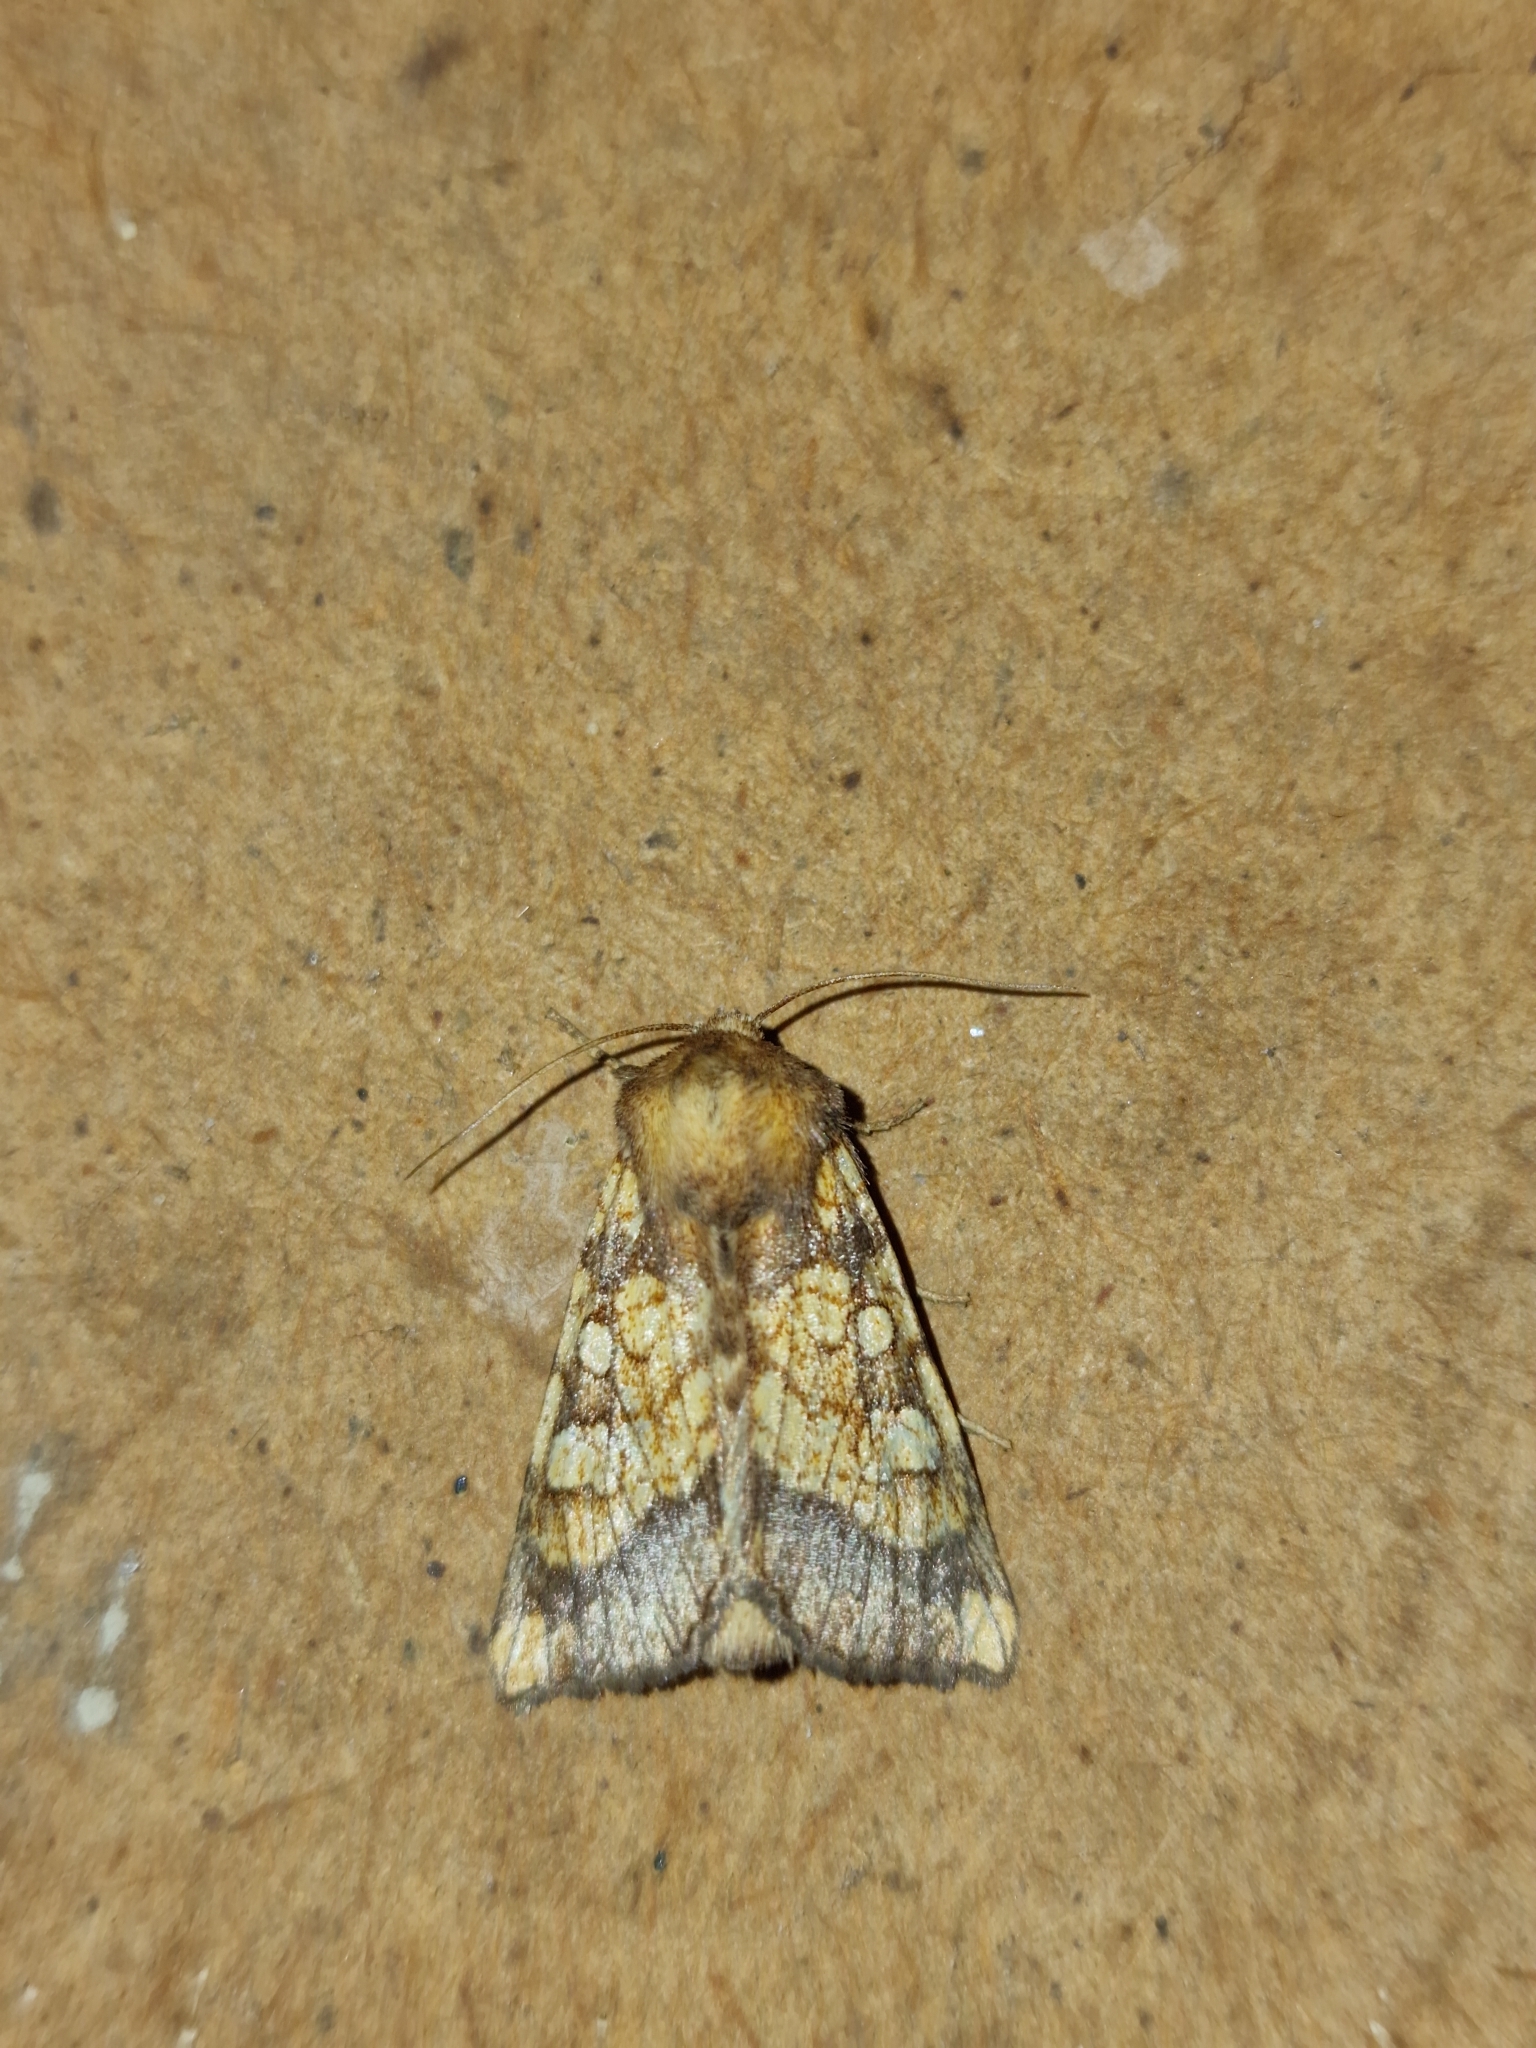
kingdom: Animalia
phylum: Arthropoda
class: Insecta
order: Lepidoptera
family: Noctuidae
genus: Gortyna
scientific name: Gortyna flavago
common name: Frosted orange
